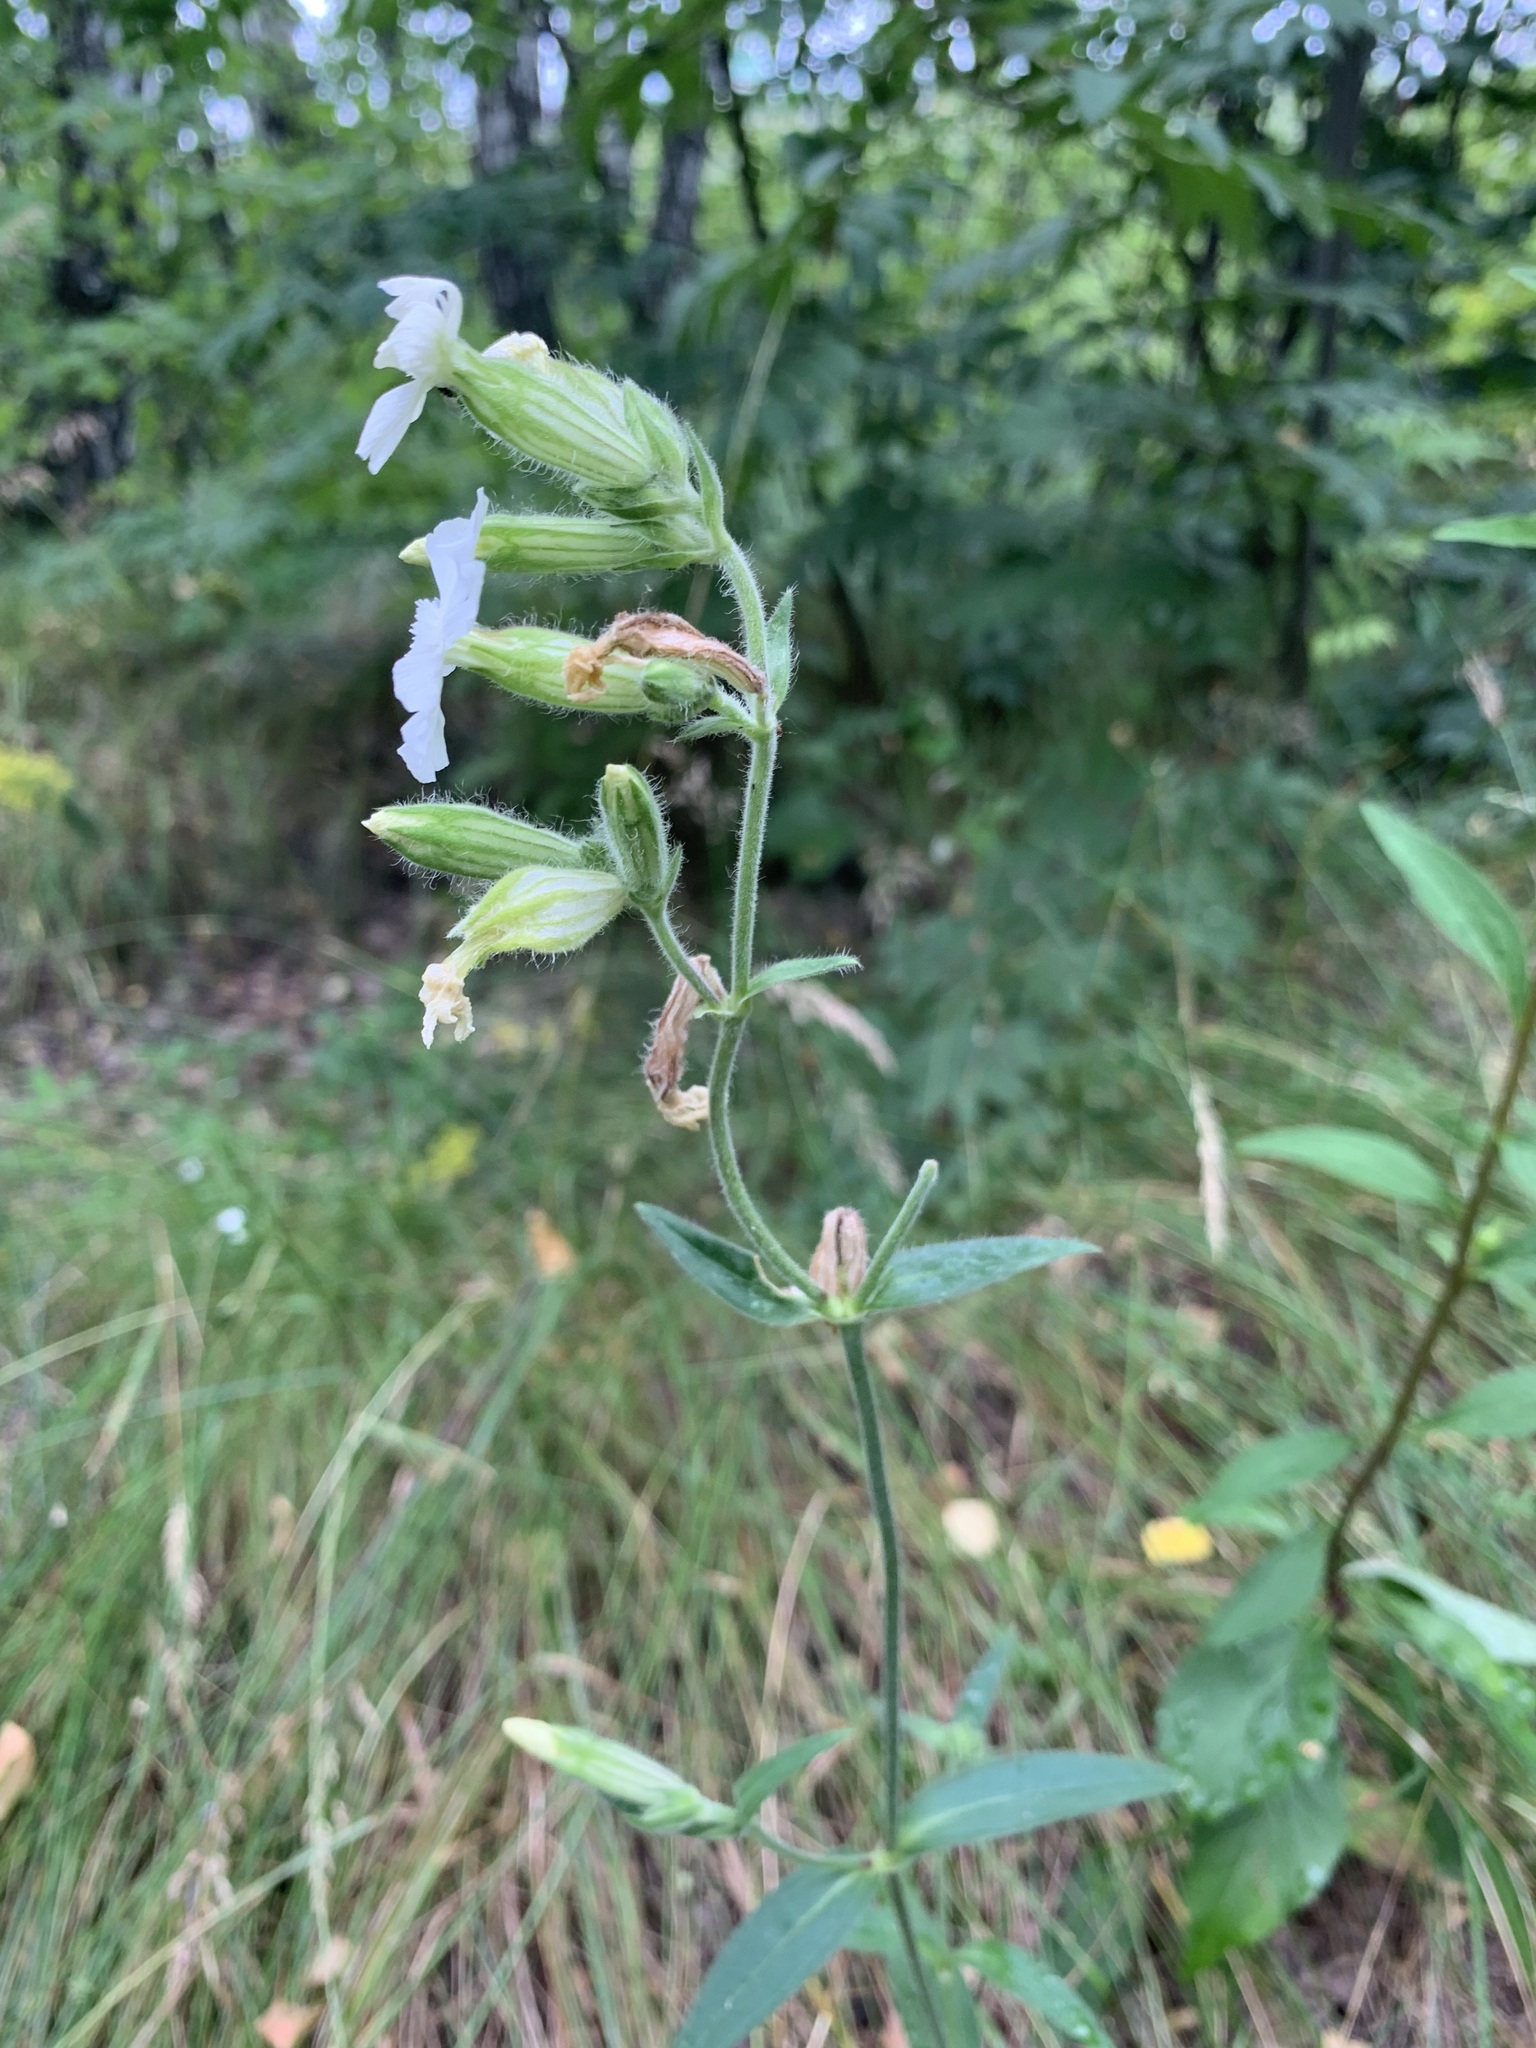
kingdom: Plantae
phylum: Tracheophyta
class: Magnoliopsida
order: Caryophyllales
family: Caryophyllaceae
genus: Silene
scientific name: Silene latifolia
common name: White campion
